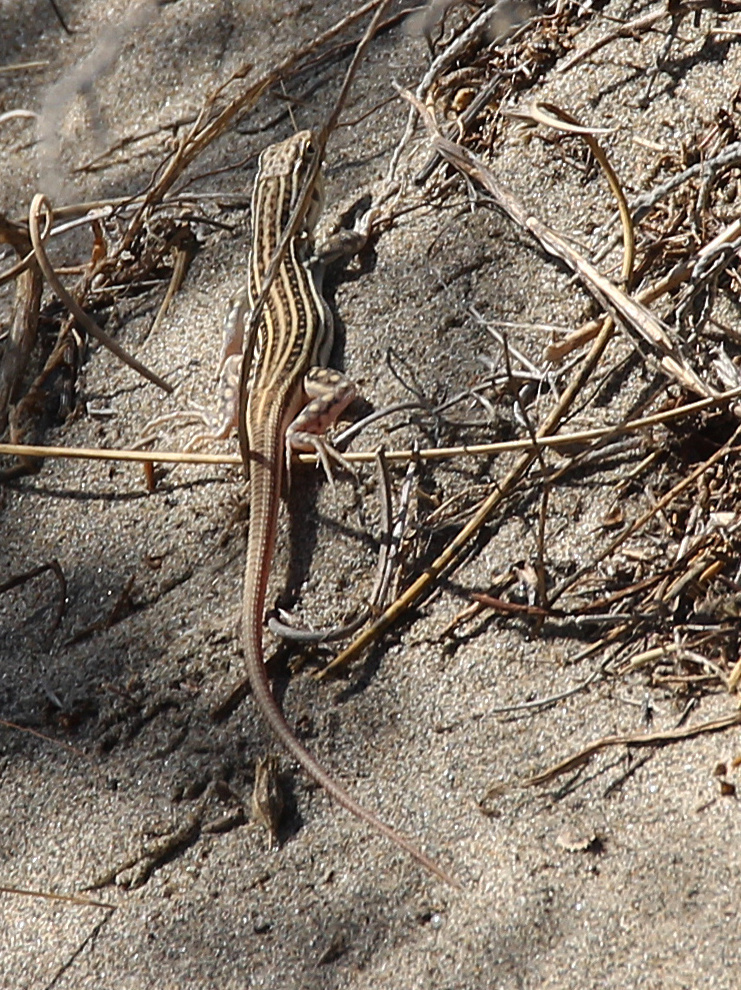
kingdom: Animalia
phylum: Chordata
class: Squamata
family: Lacertidae
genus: Acanthodactylus
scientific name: Acanthodactylus erythrurus
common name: Spiny-footed lizard
